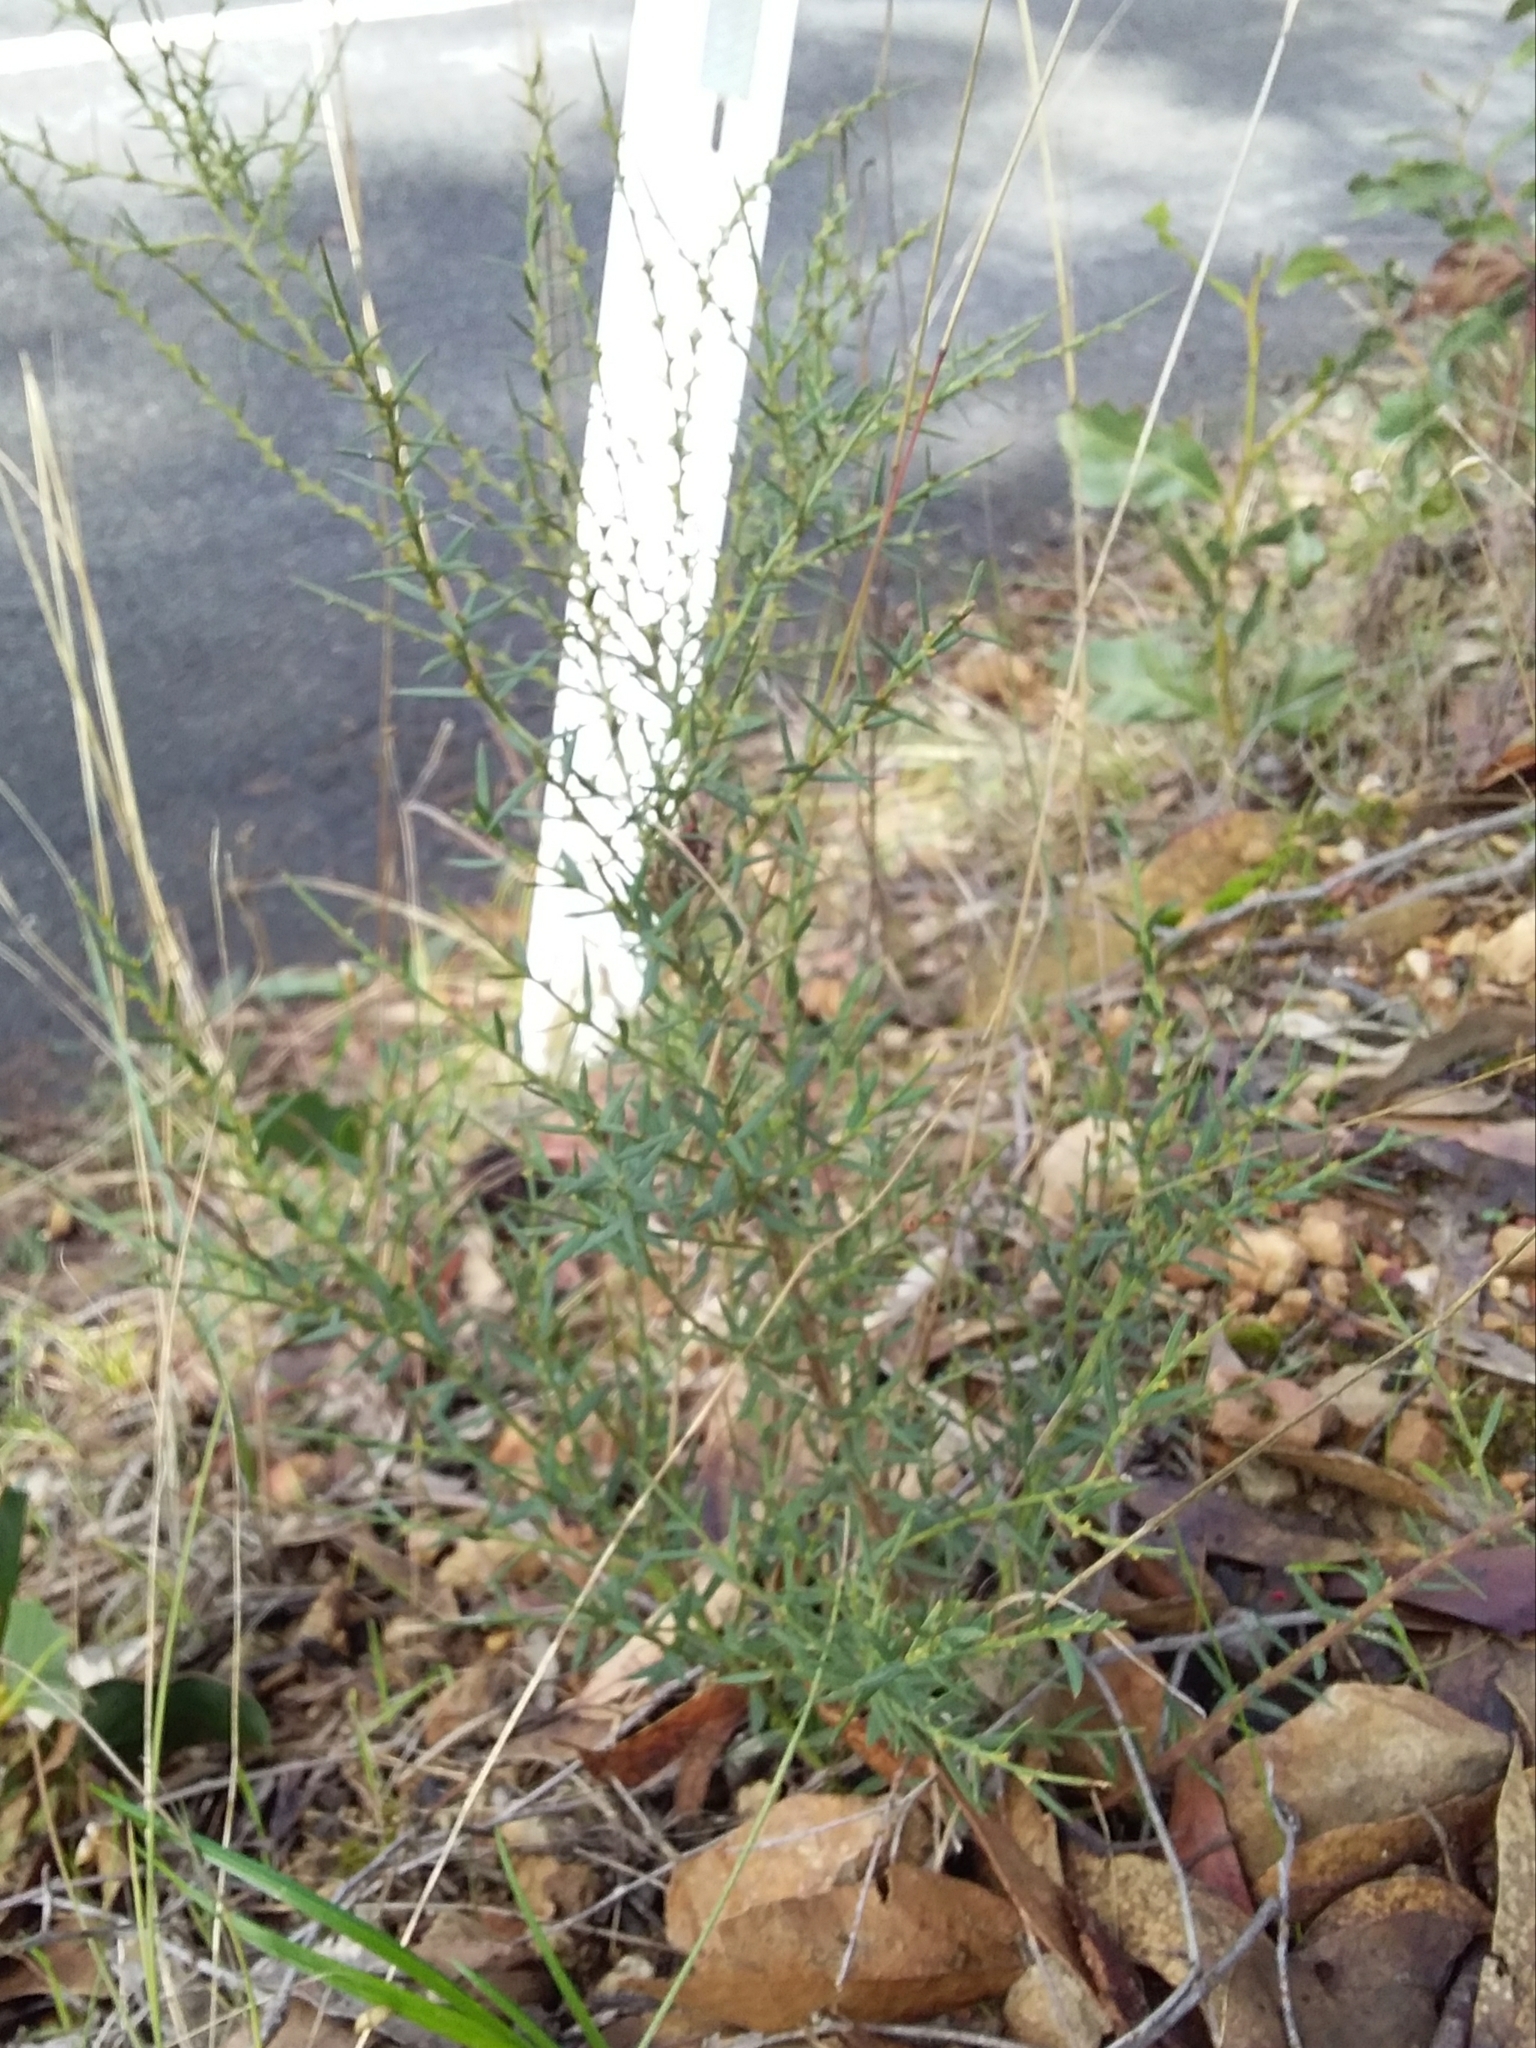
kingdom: Plantae
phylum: Tracheophyta
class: Magnoliopsida
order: Fabales
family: Fabaceae
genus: Daviesia
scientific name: Daviesia ulicifolia
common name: Gorse bitter-pea
